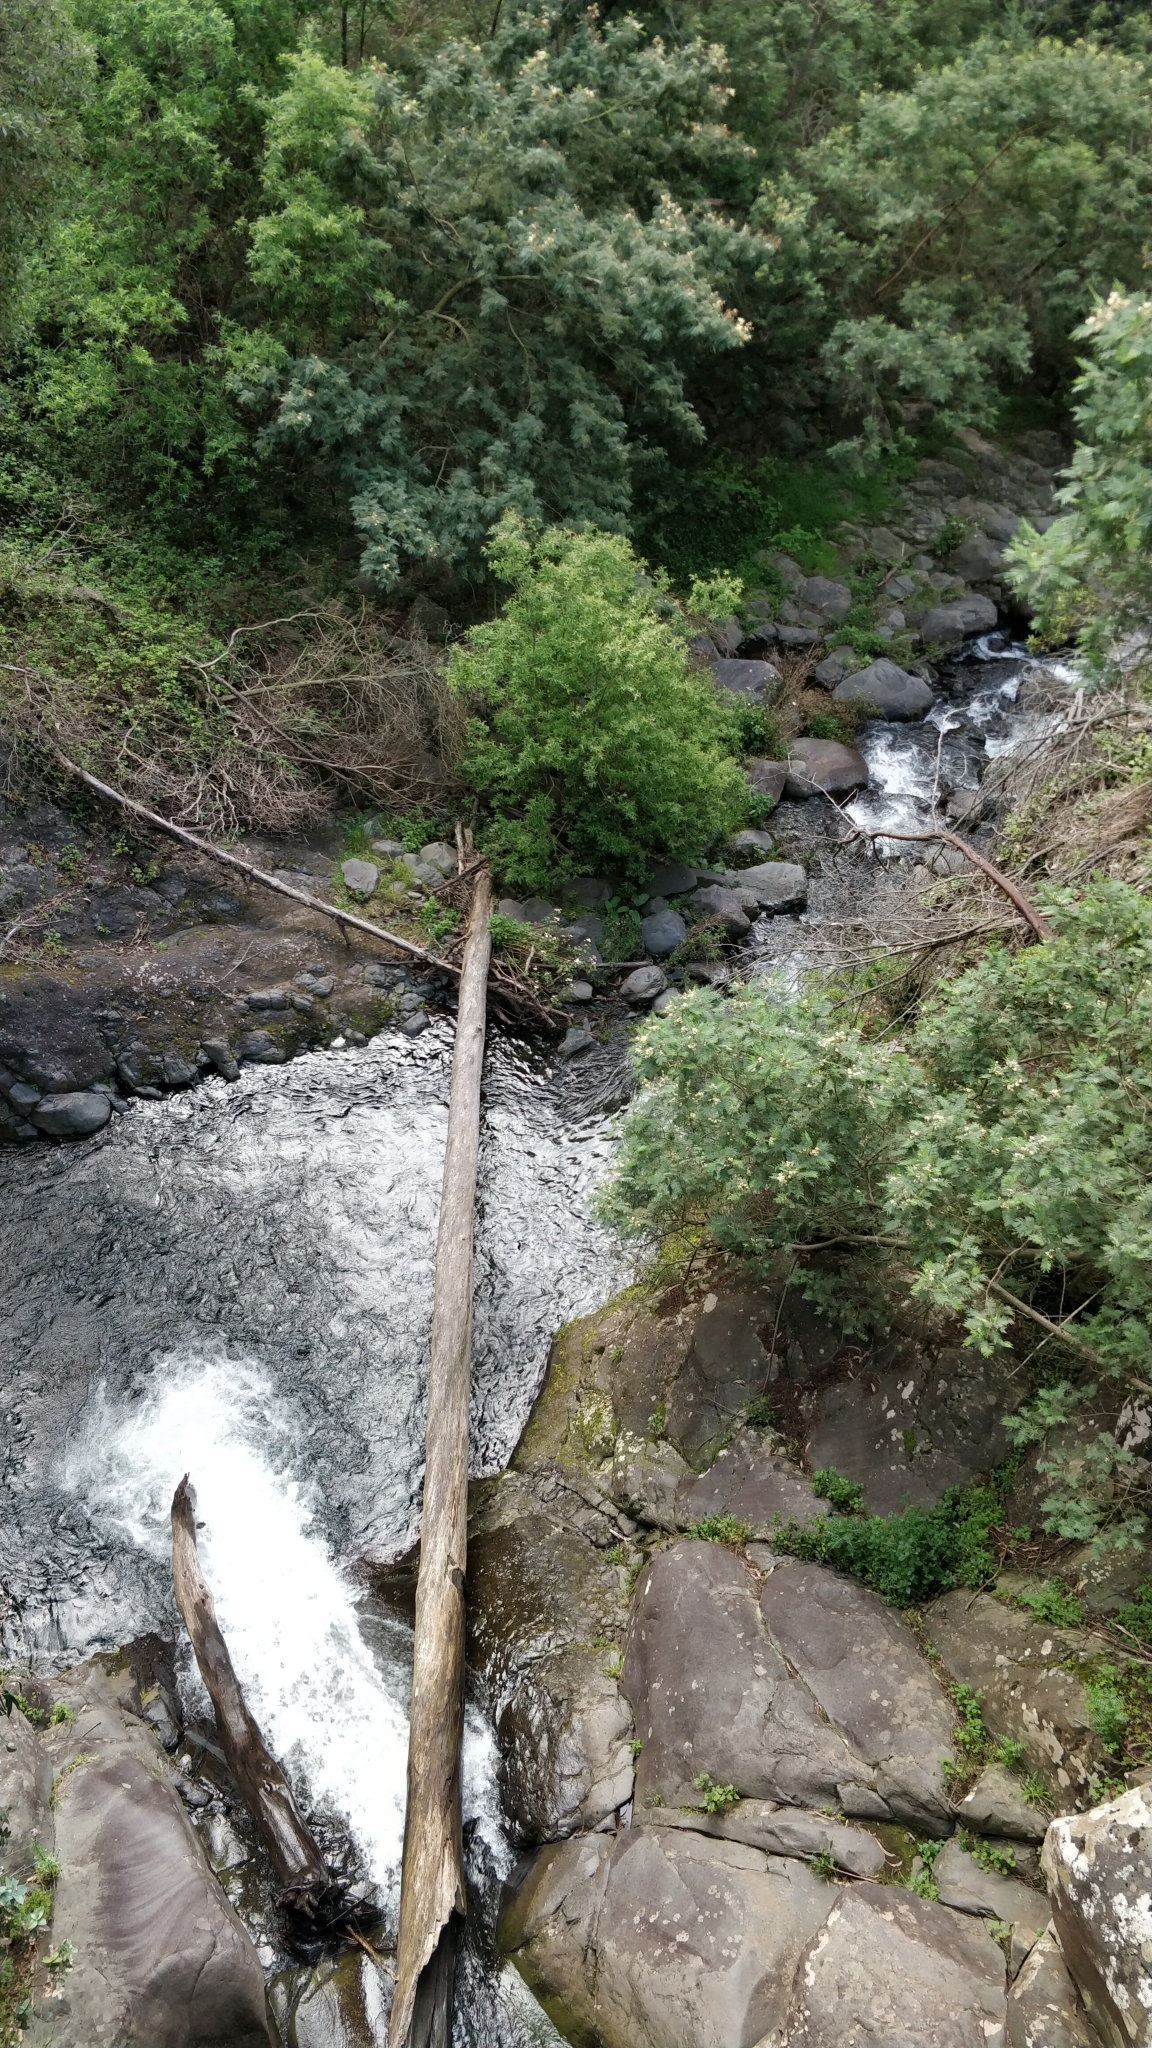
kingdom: Plantae
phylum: Tracheophyta
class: Magnoliopsida
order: Malpighiales
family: Salicaceae
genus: Salix
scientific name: Salix canariensis
